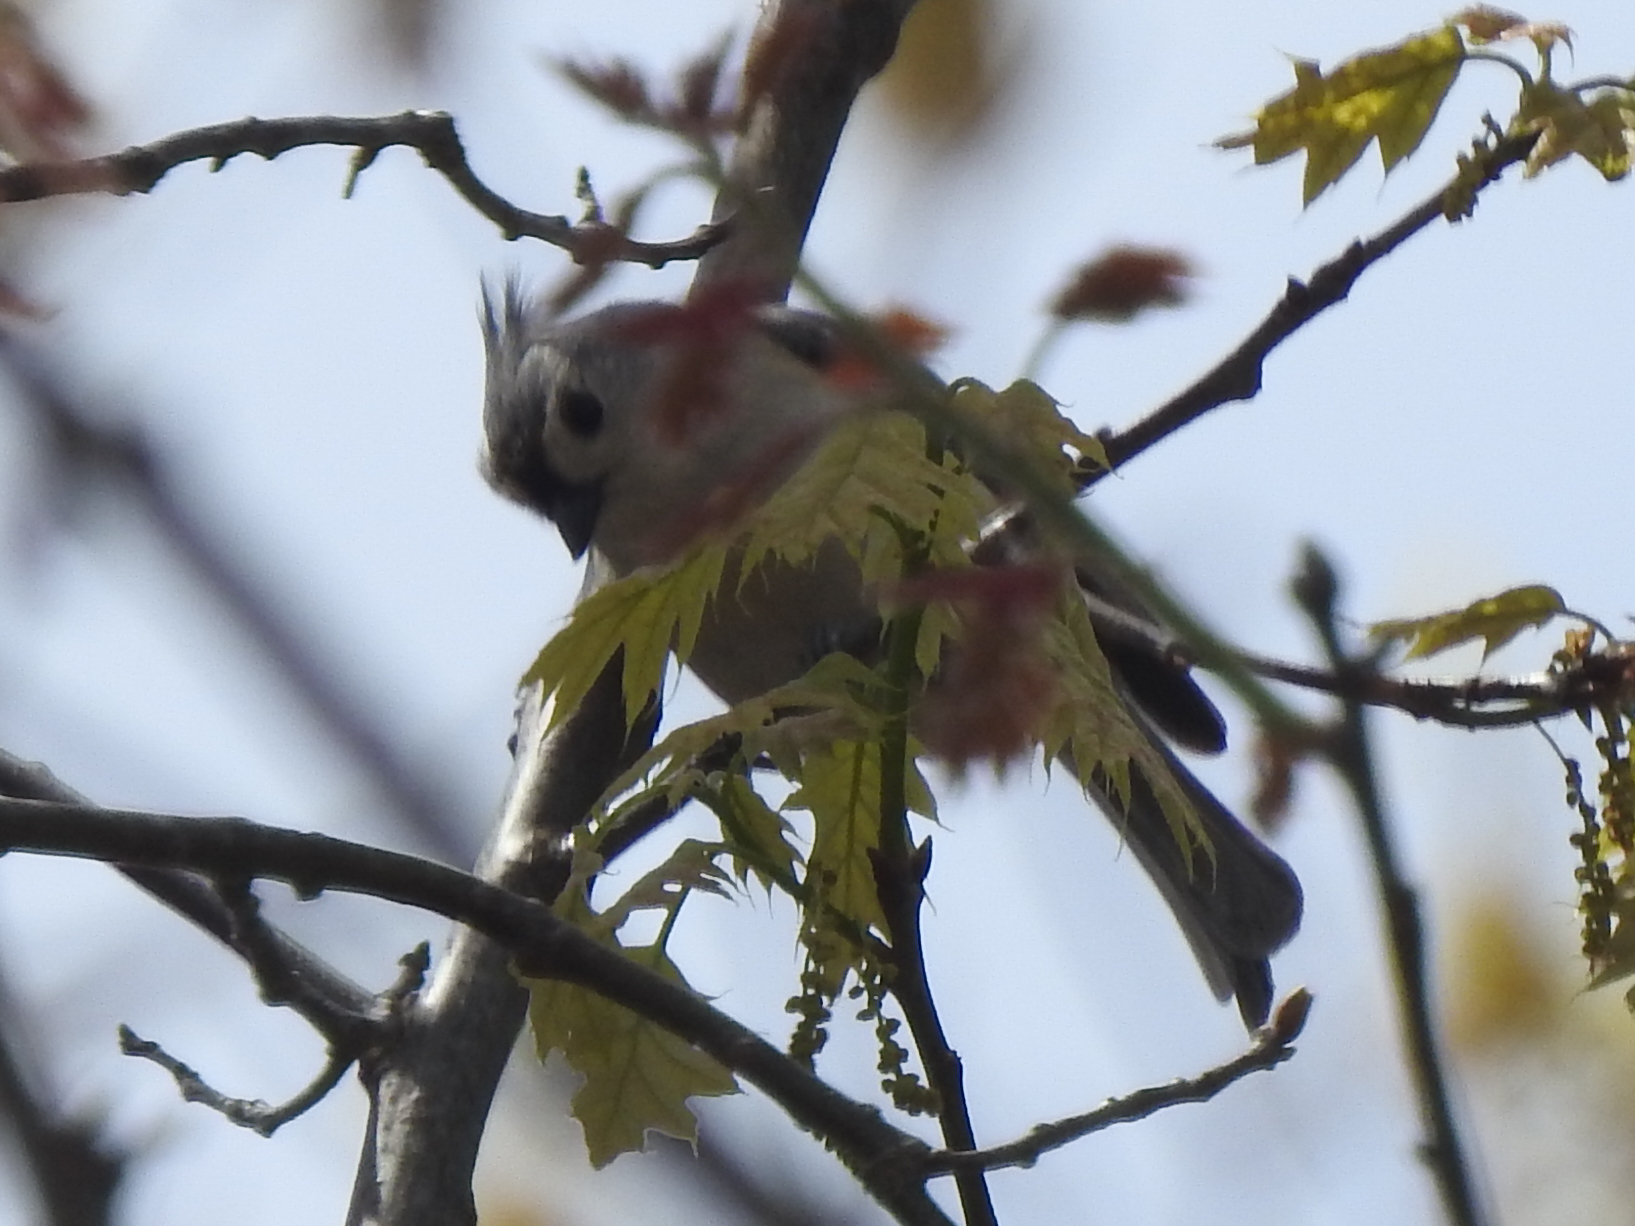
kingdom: Animalia
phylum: Chordata
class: Aves
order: Passeriformes
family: Paridae
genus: Baeolophus
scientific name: Baeolophus bicolor
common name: Tufted titmouse
